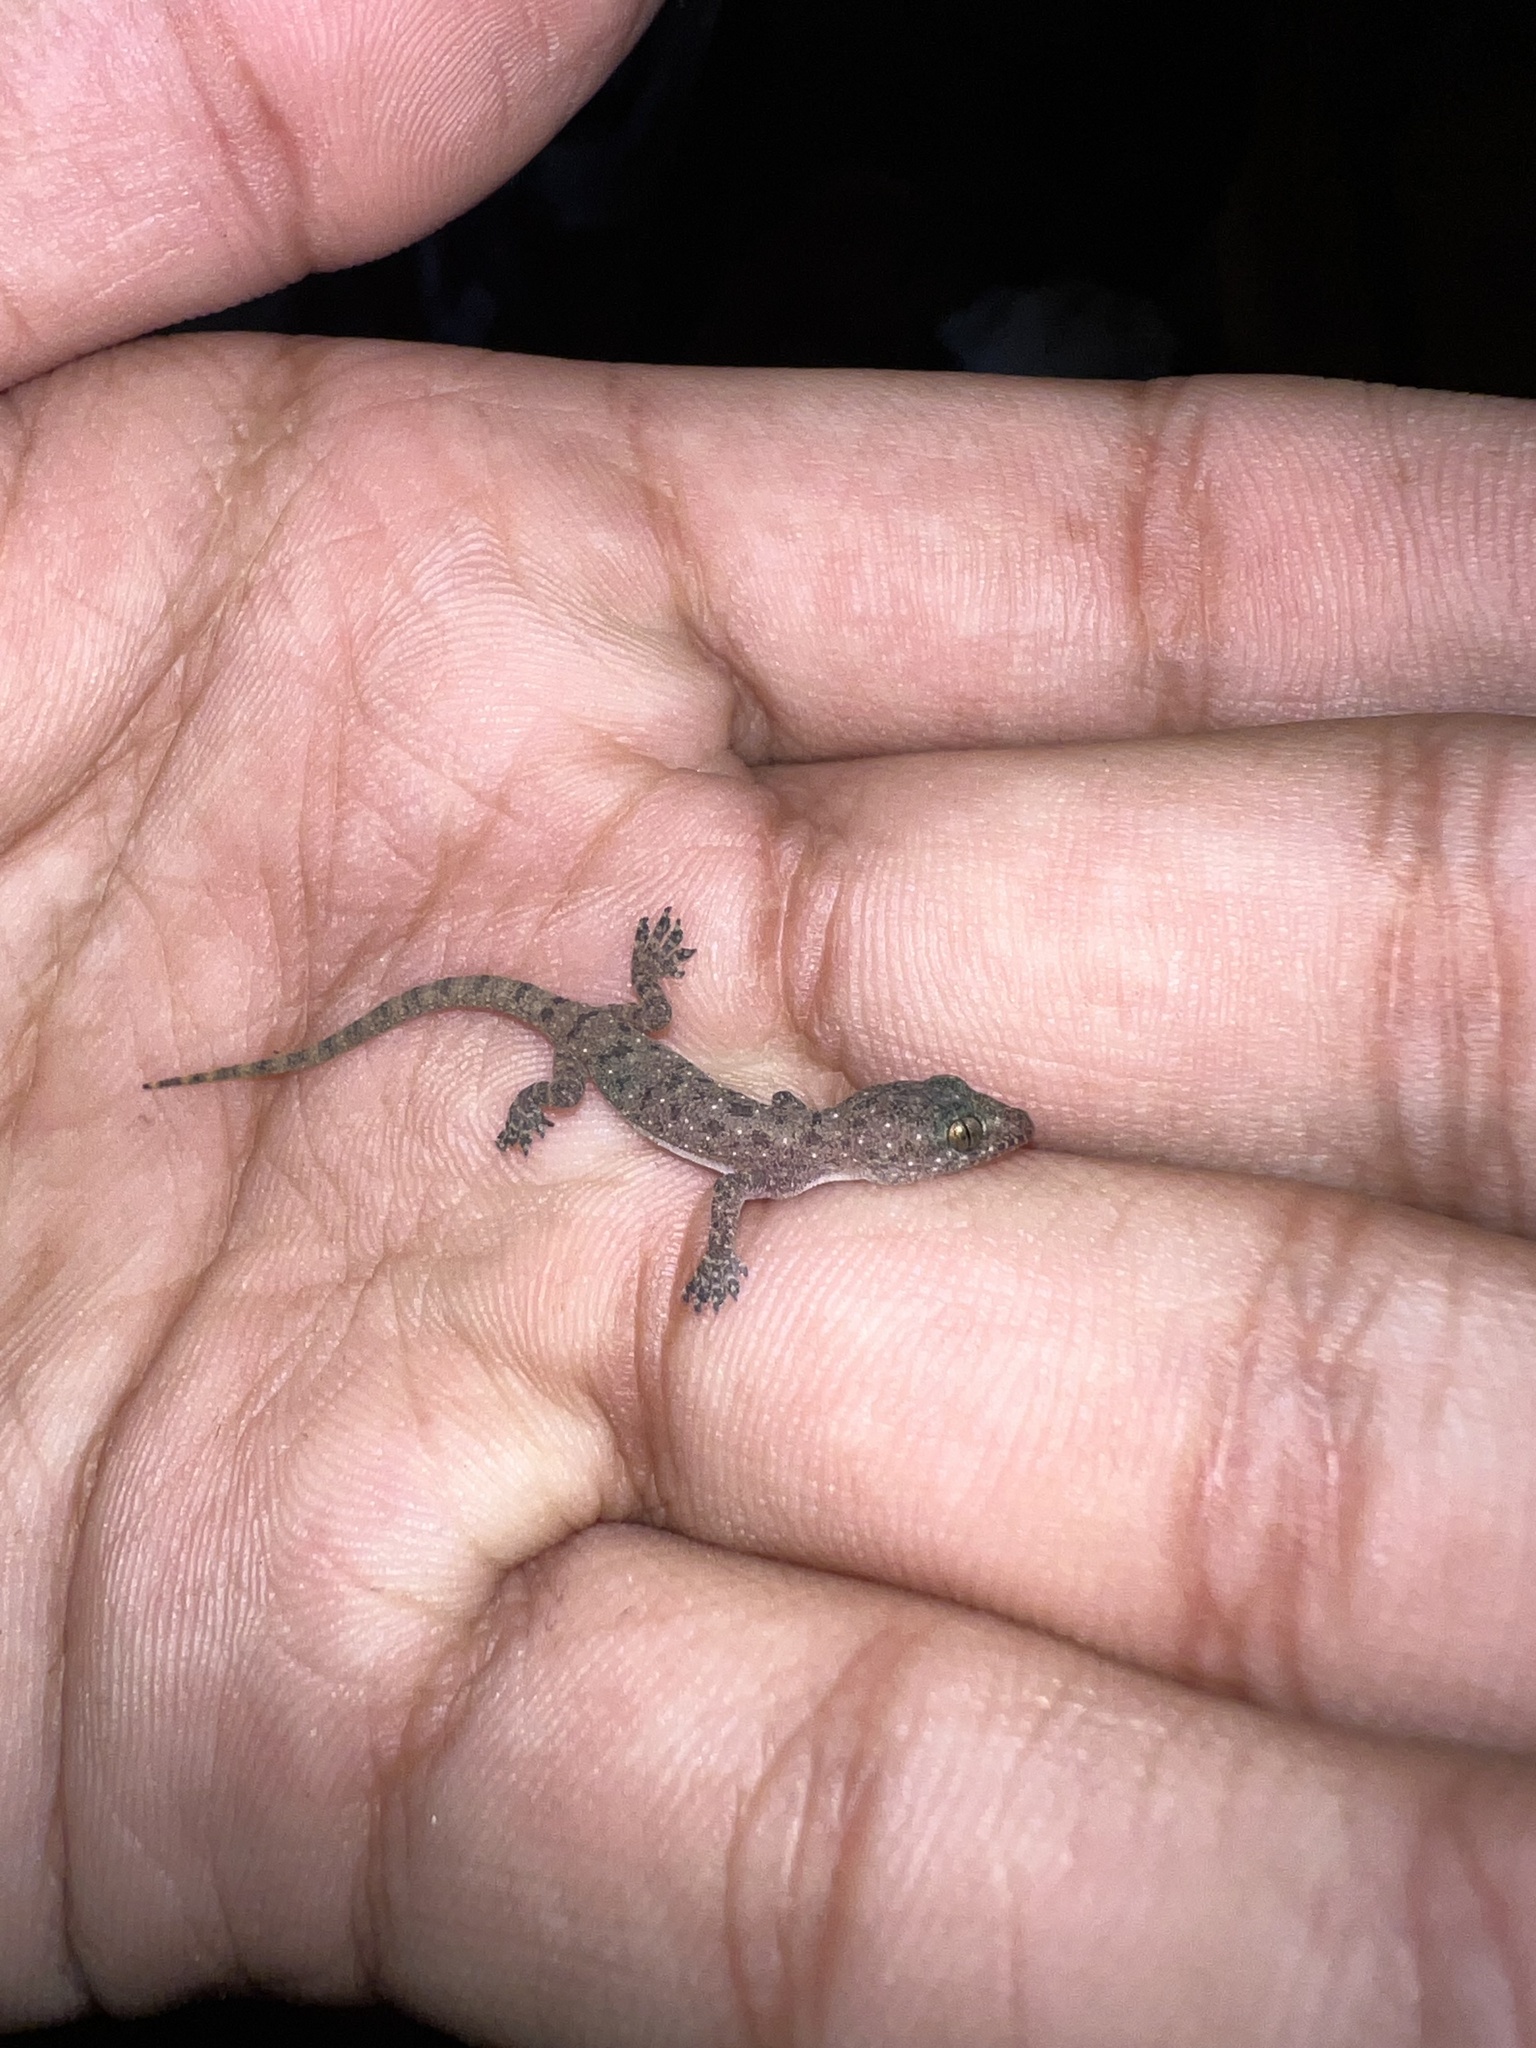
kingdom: Animalia
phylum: Chordata
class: Squamata
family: Gekkonidae
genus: Hemidactylus
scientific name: Hemidactylus parvimaculatus
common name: Spotted house gecko
